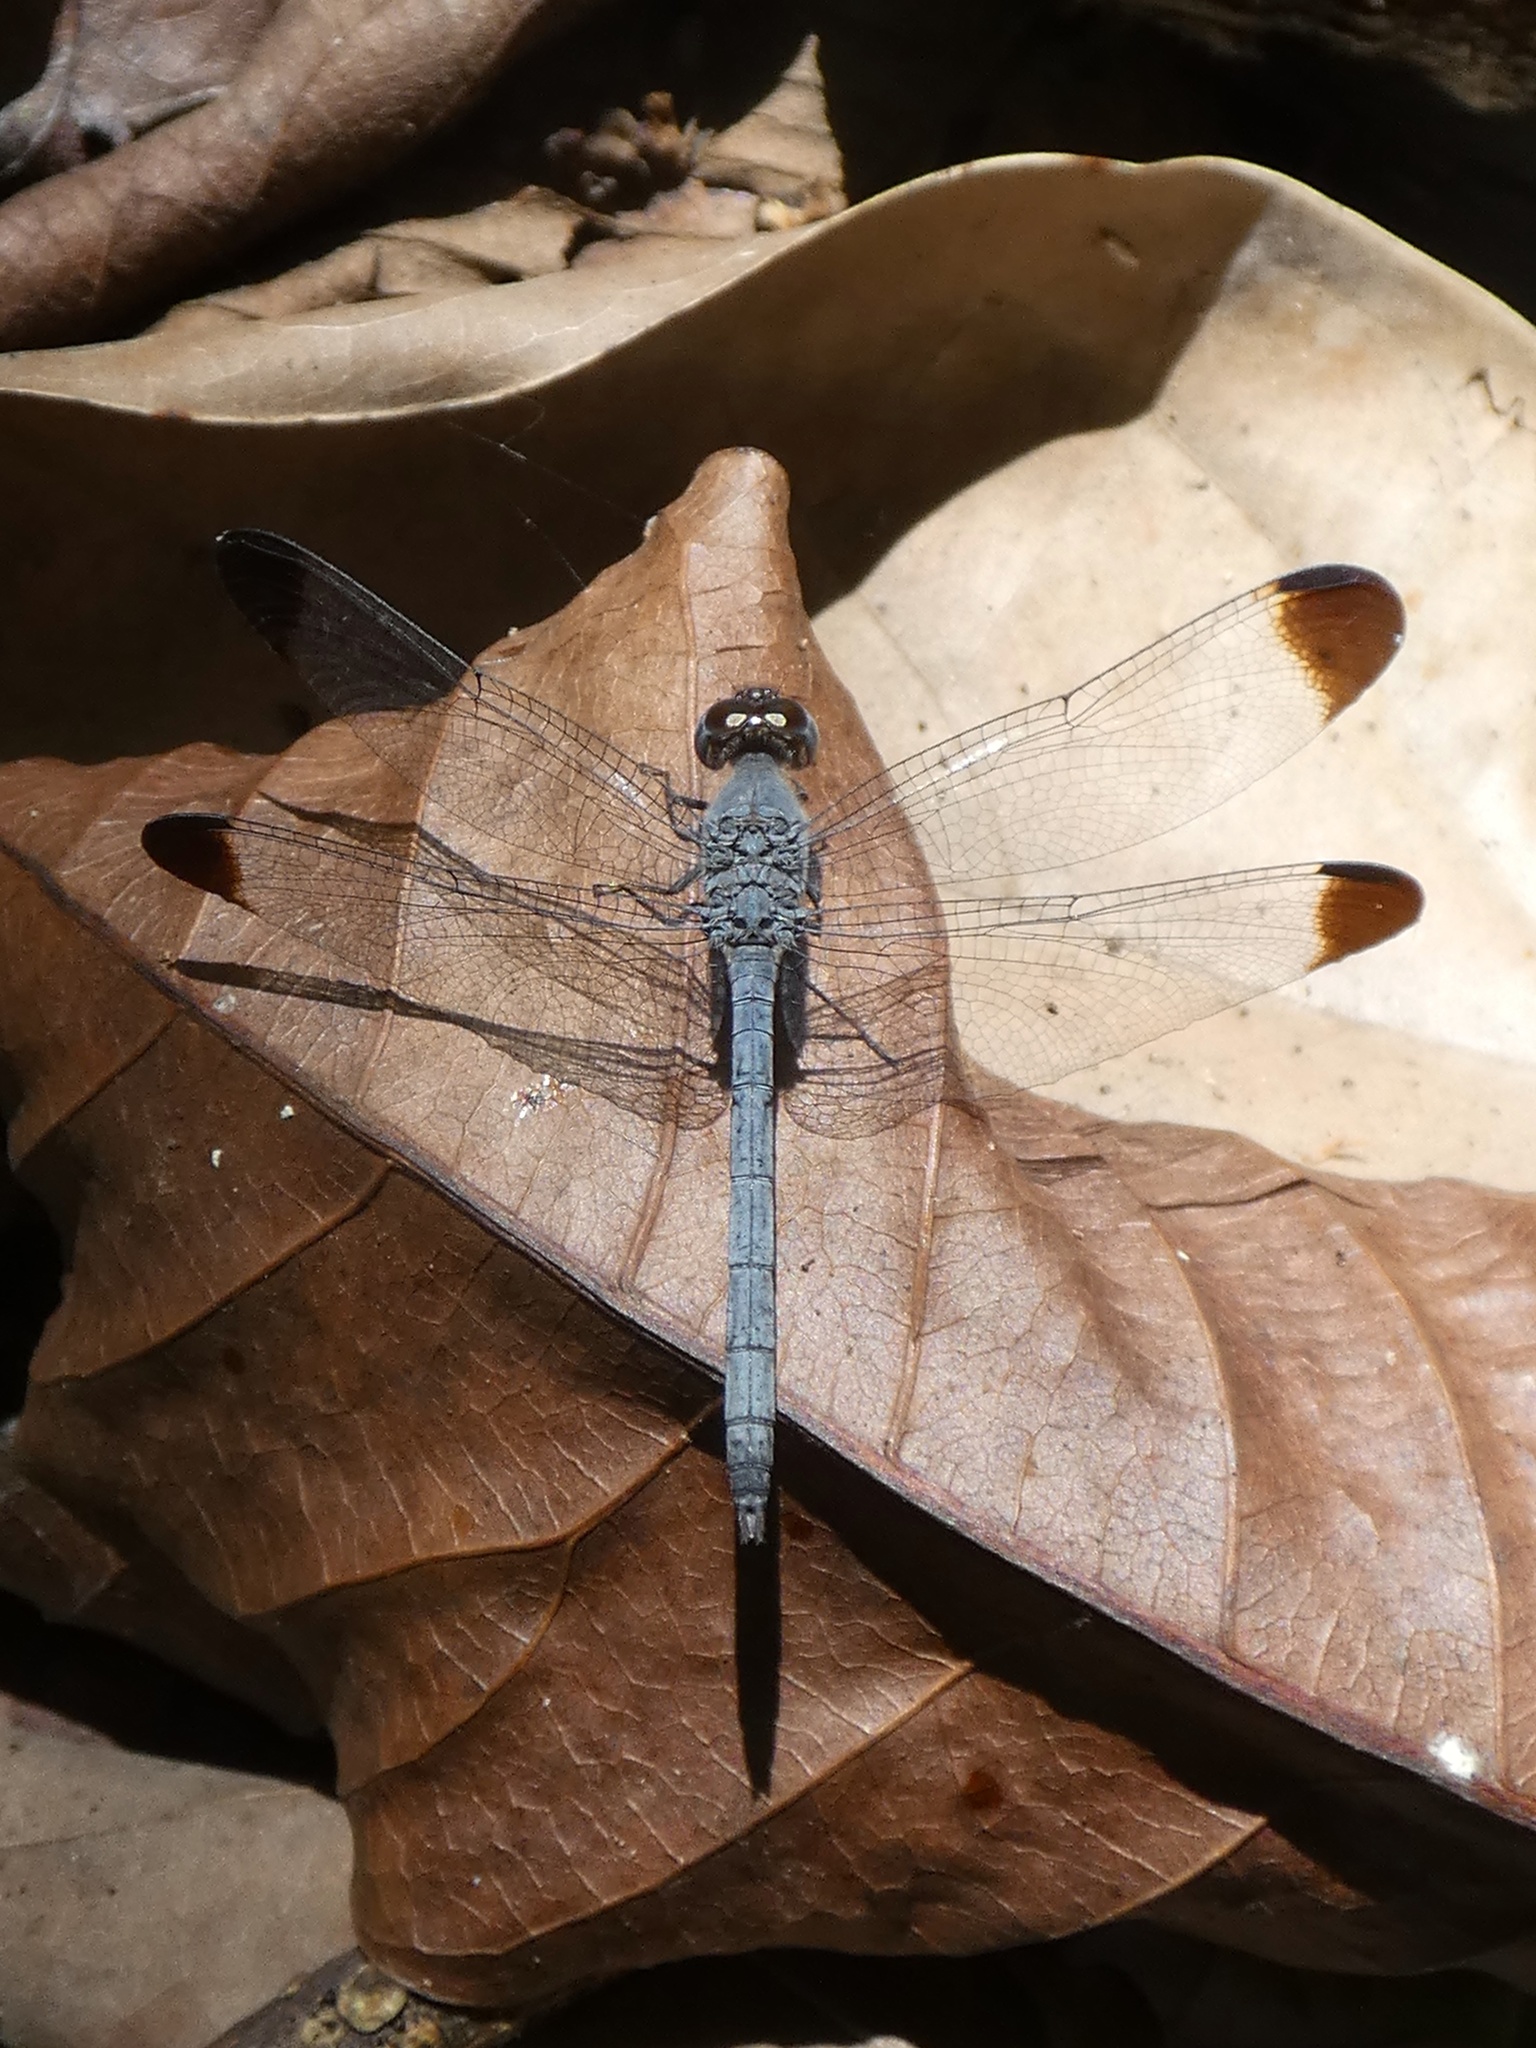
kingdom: Animalia
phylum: Arthropoda
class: Insecta
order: Odonata
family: Libellulidae
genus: Uracis
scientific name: Uracis imbuta
